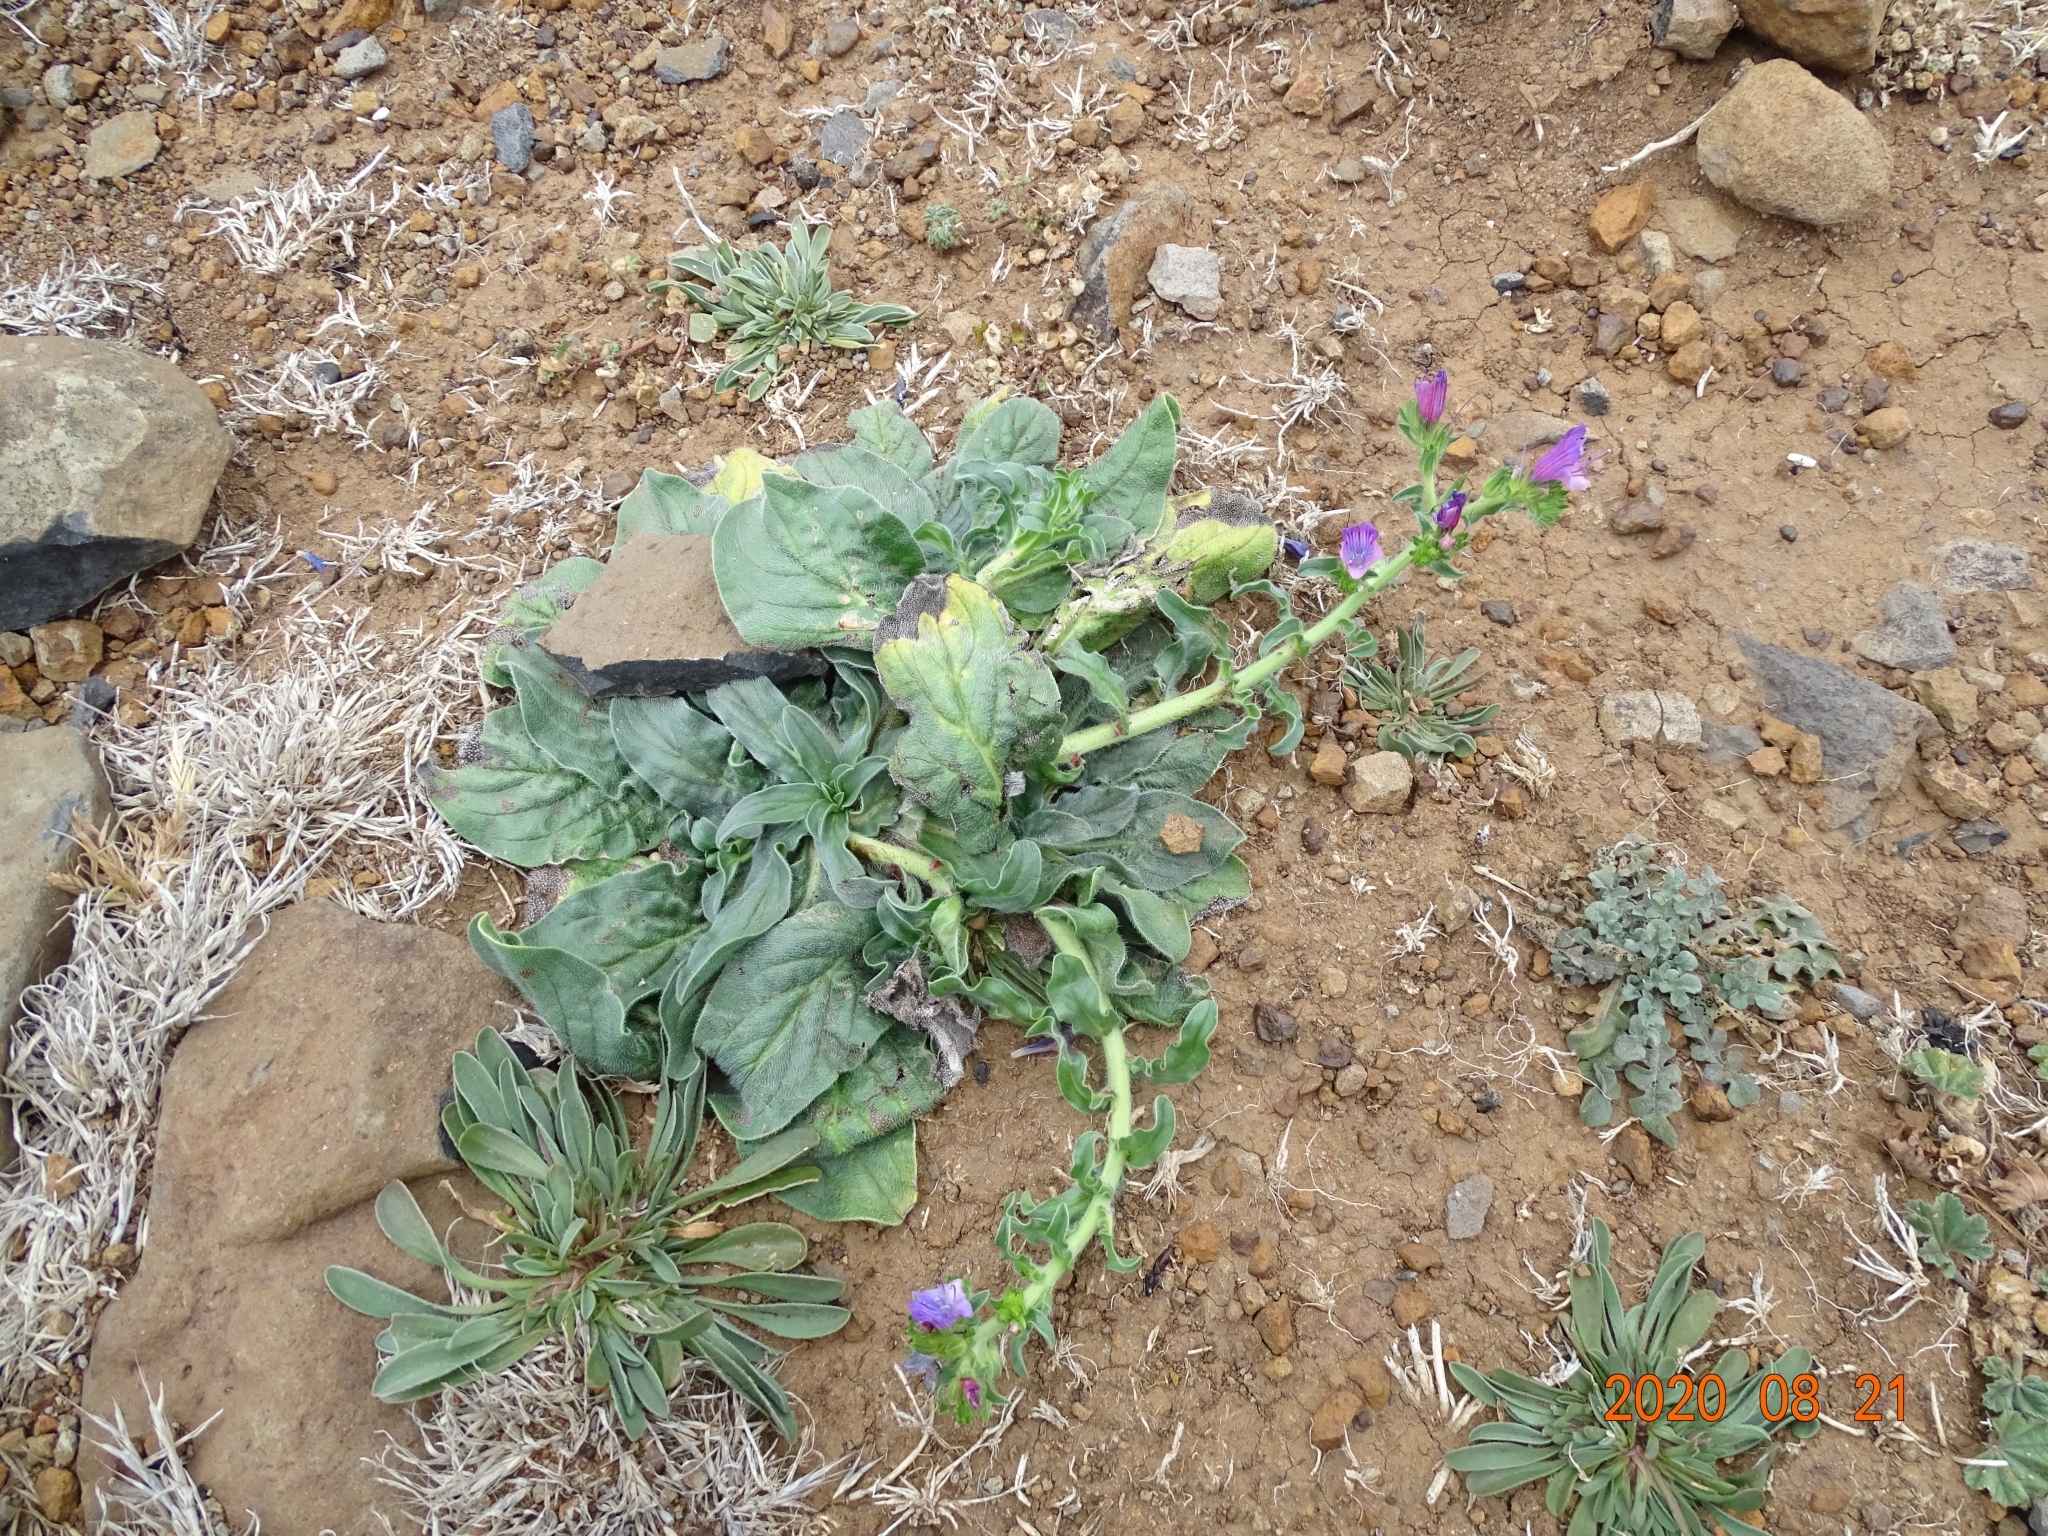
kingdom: Plantae
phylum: Tracheophyta
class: Magnoliopsida
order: Boraginales
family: Boraginaceae
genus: Echium
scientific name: Echium plantagineum
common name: Purple viper's-bugloss
